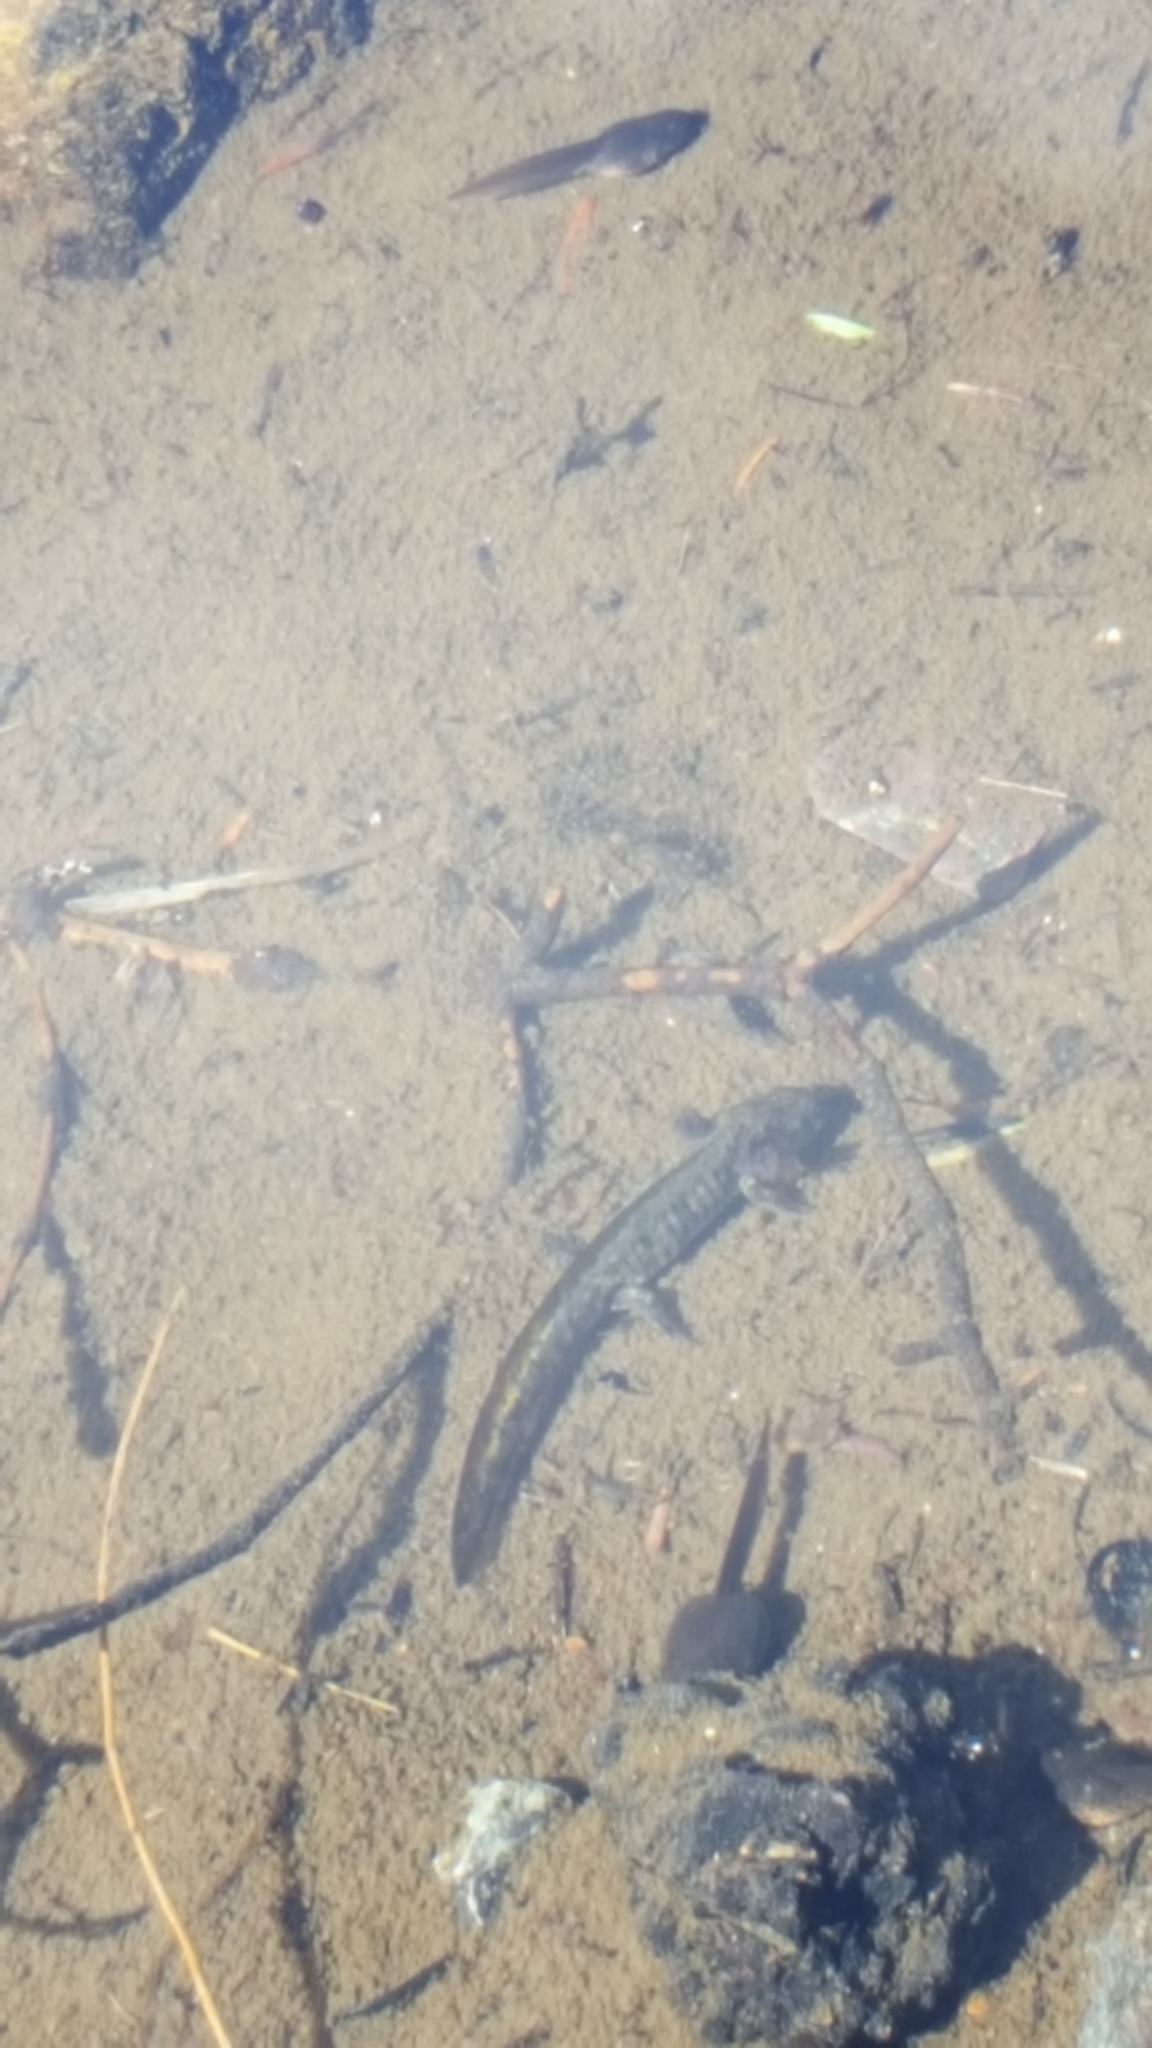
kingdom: Animalia
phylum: Chordata
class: Amphibia
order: Caudata
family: Ambystomatidae
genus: Ambystoma
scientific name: Ambystoma gracile
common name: Northwestern salamander
